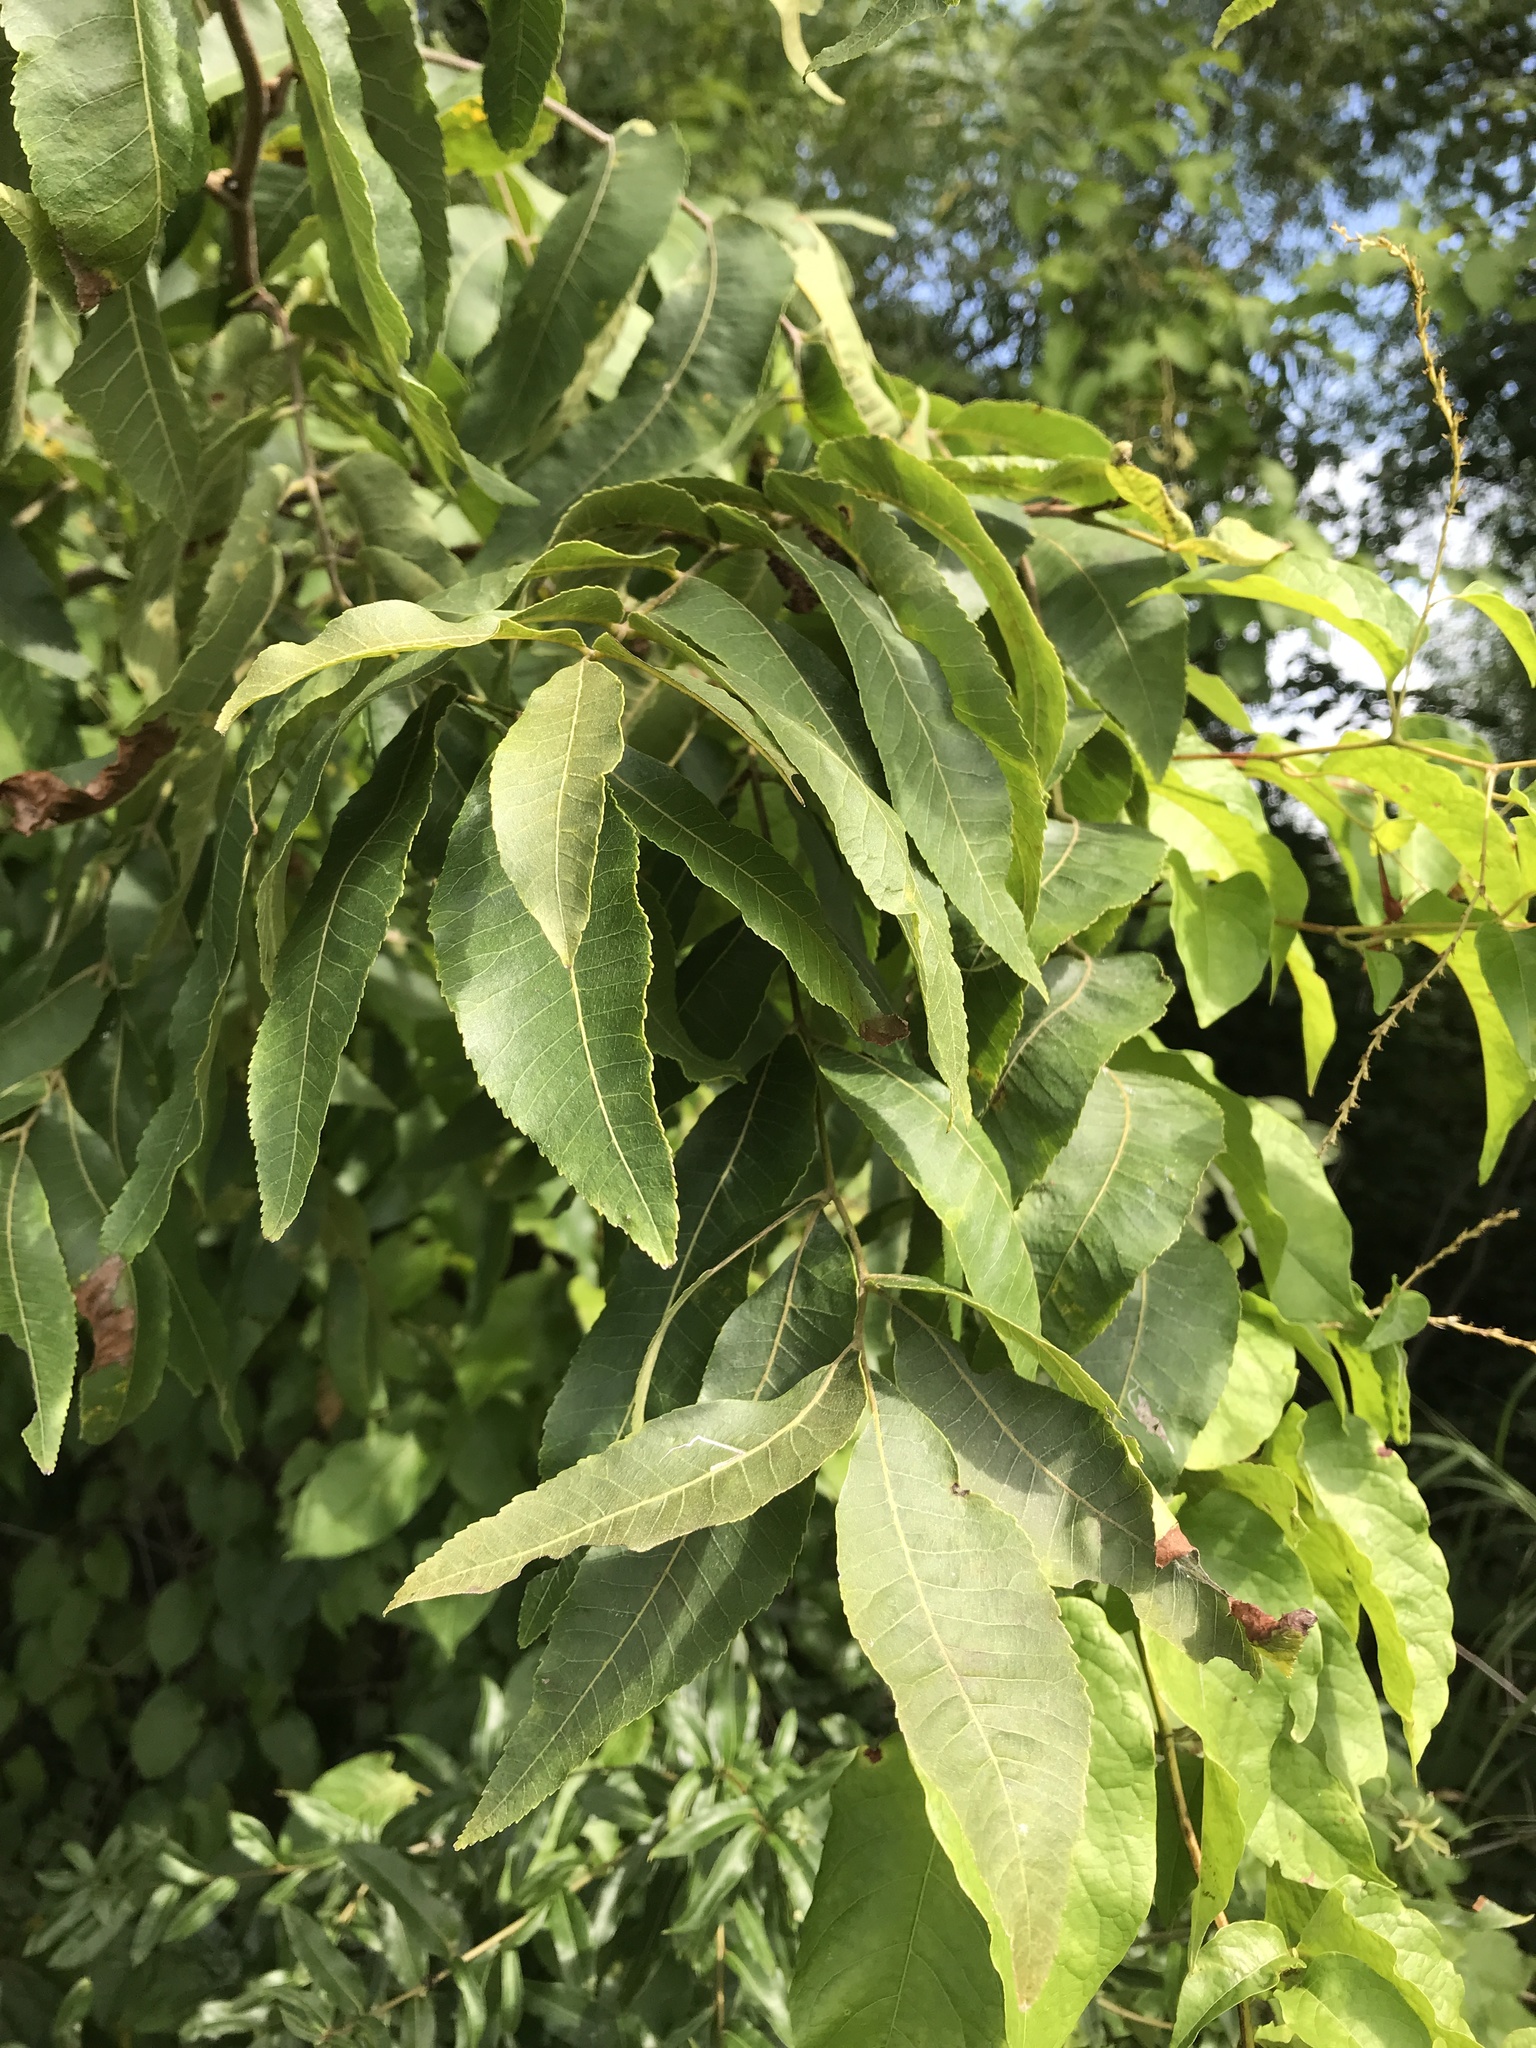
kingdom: Plantae
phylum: Tracheophyta
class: Magnoliopsida
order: Fagales
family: Juglandaceae
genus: Carya
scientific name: Carya illinoinensis
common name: Pecan
